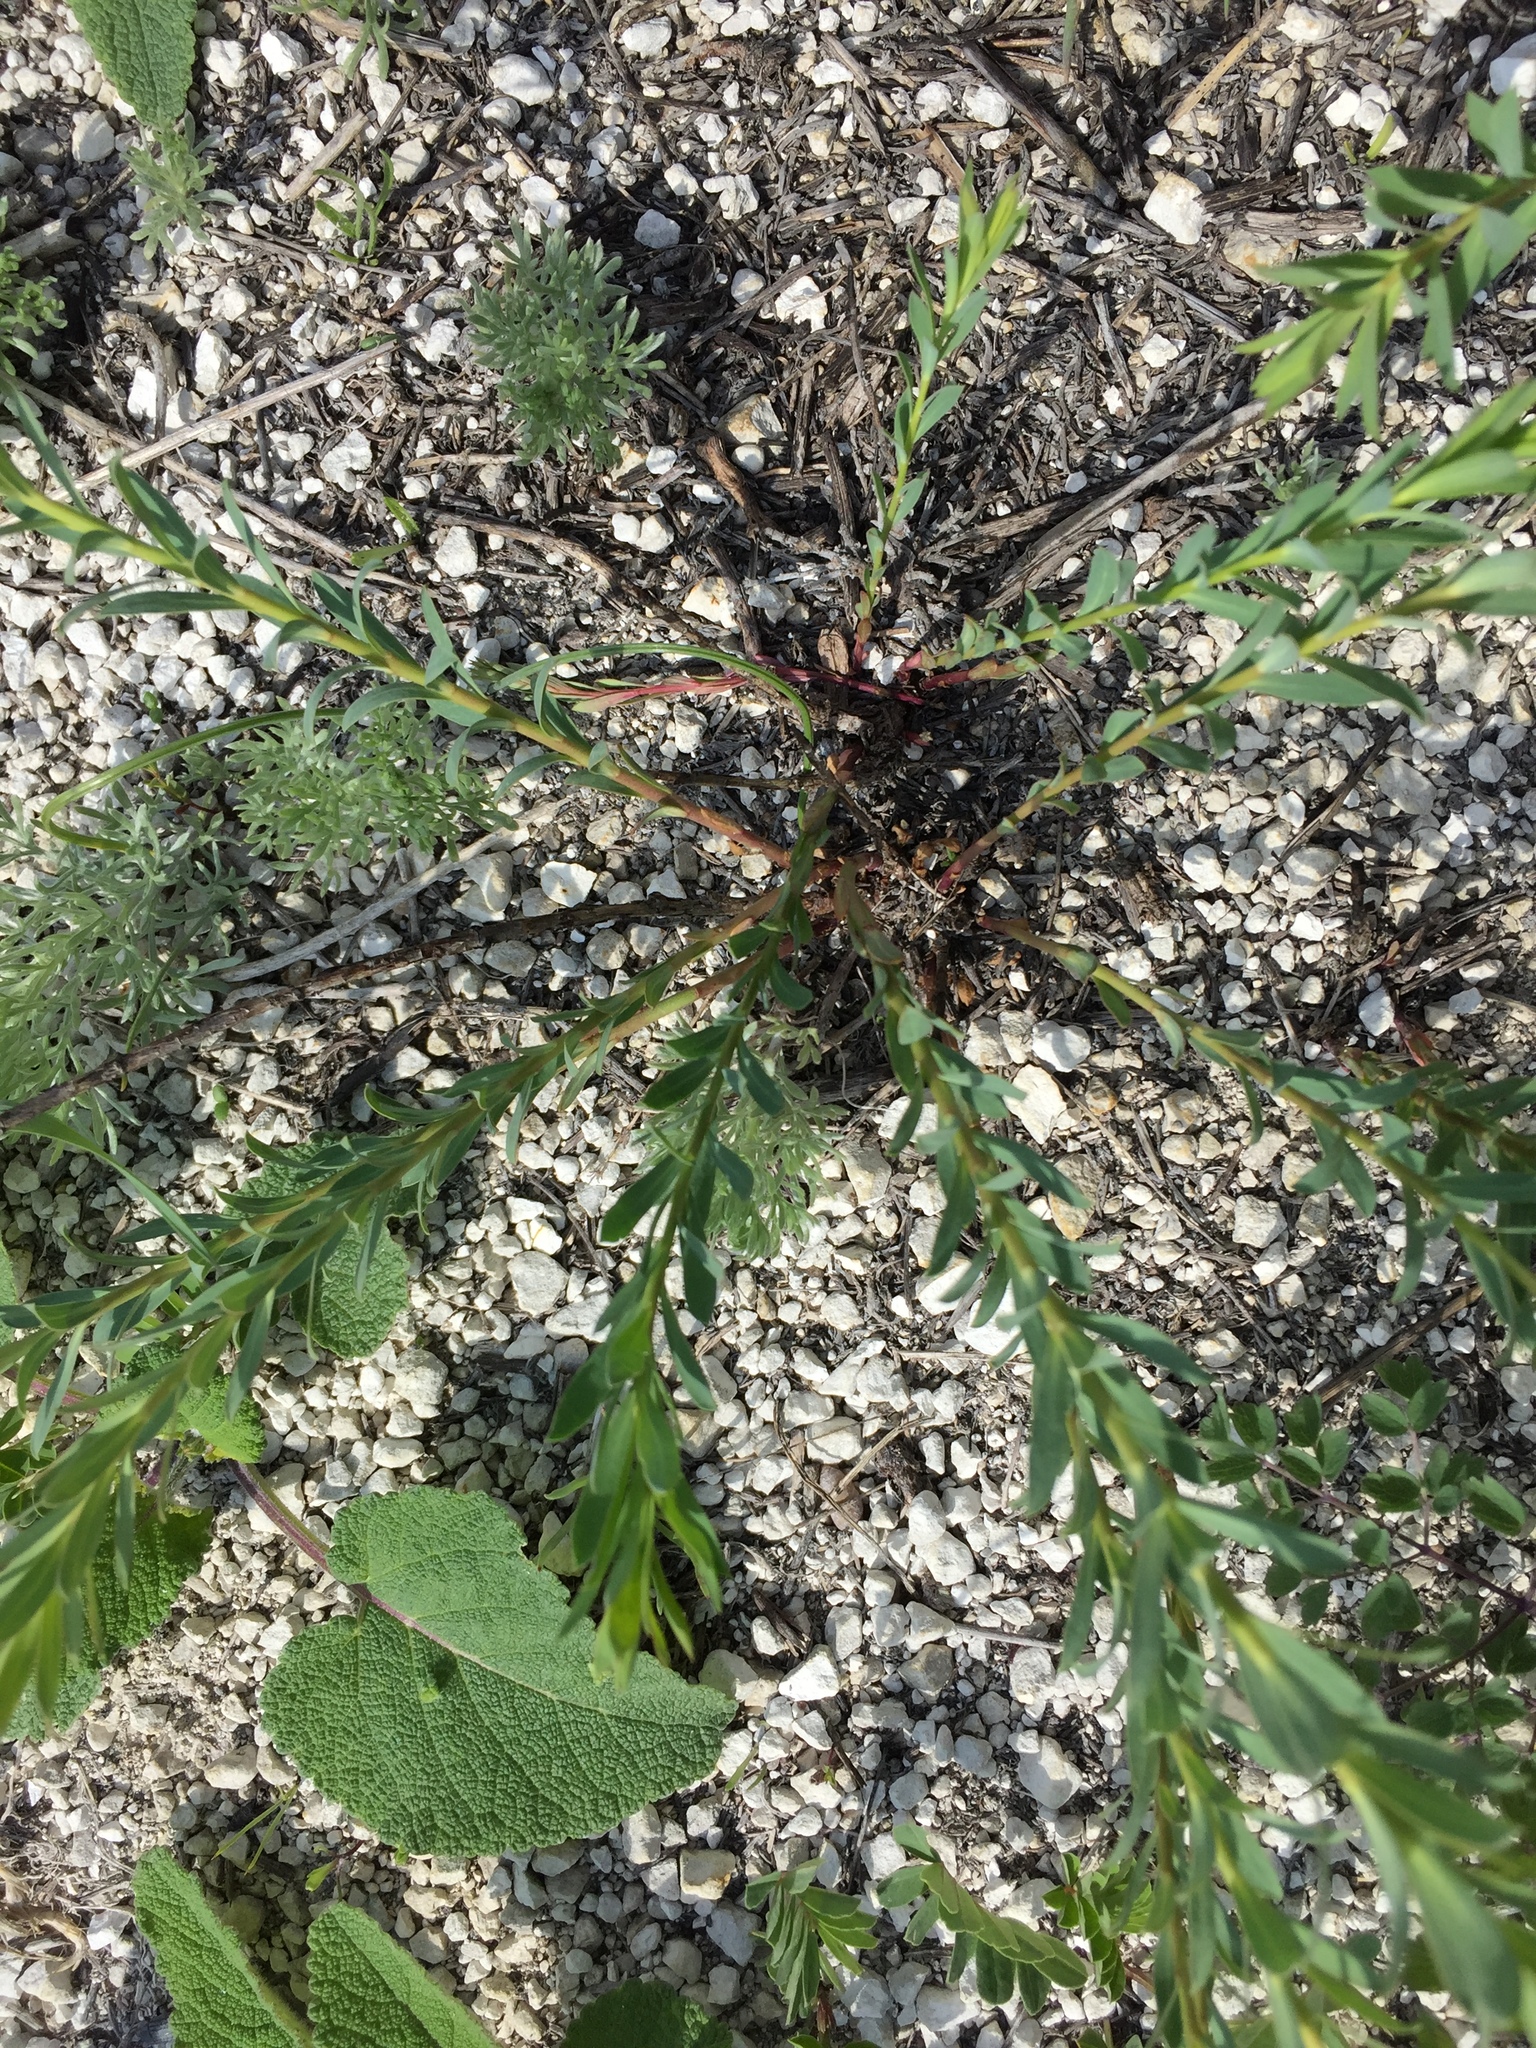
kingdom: Plantae
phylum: Tracheophyta
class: Magnoliopsida
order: Malpighiales
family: Linaceae
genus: Linum
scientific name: Linum ucranicum
